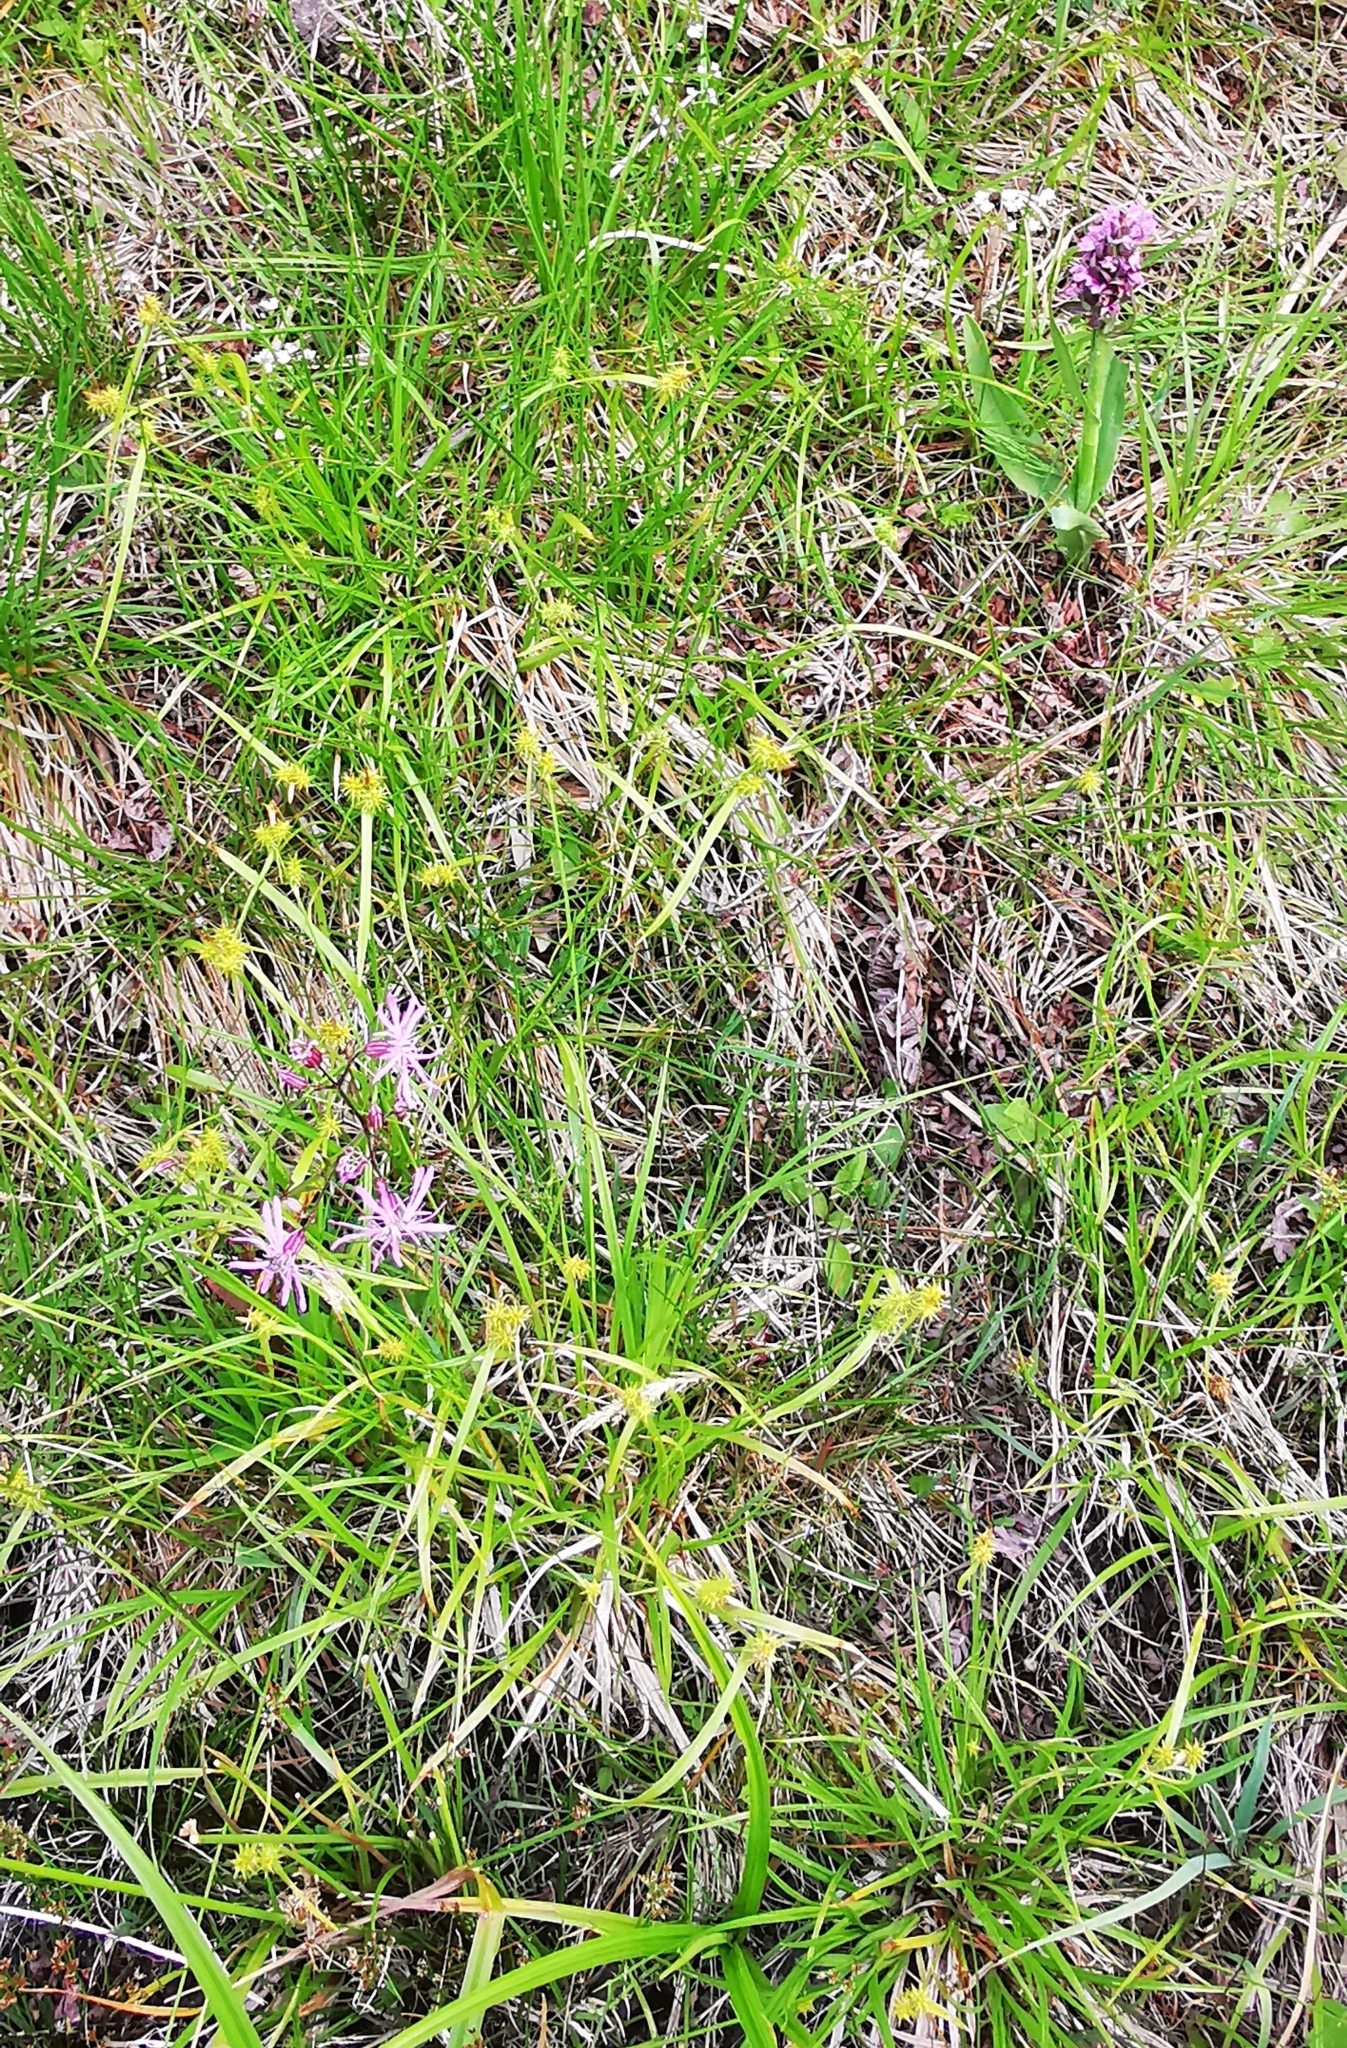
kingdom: Plantae
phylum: Tracheophyta
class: Liliopsida
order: Poales
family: Cyperaceae
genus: Carex
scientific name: Carex flava
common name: Large yellow-sedge
